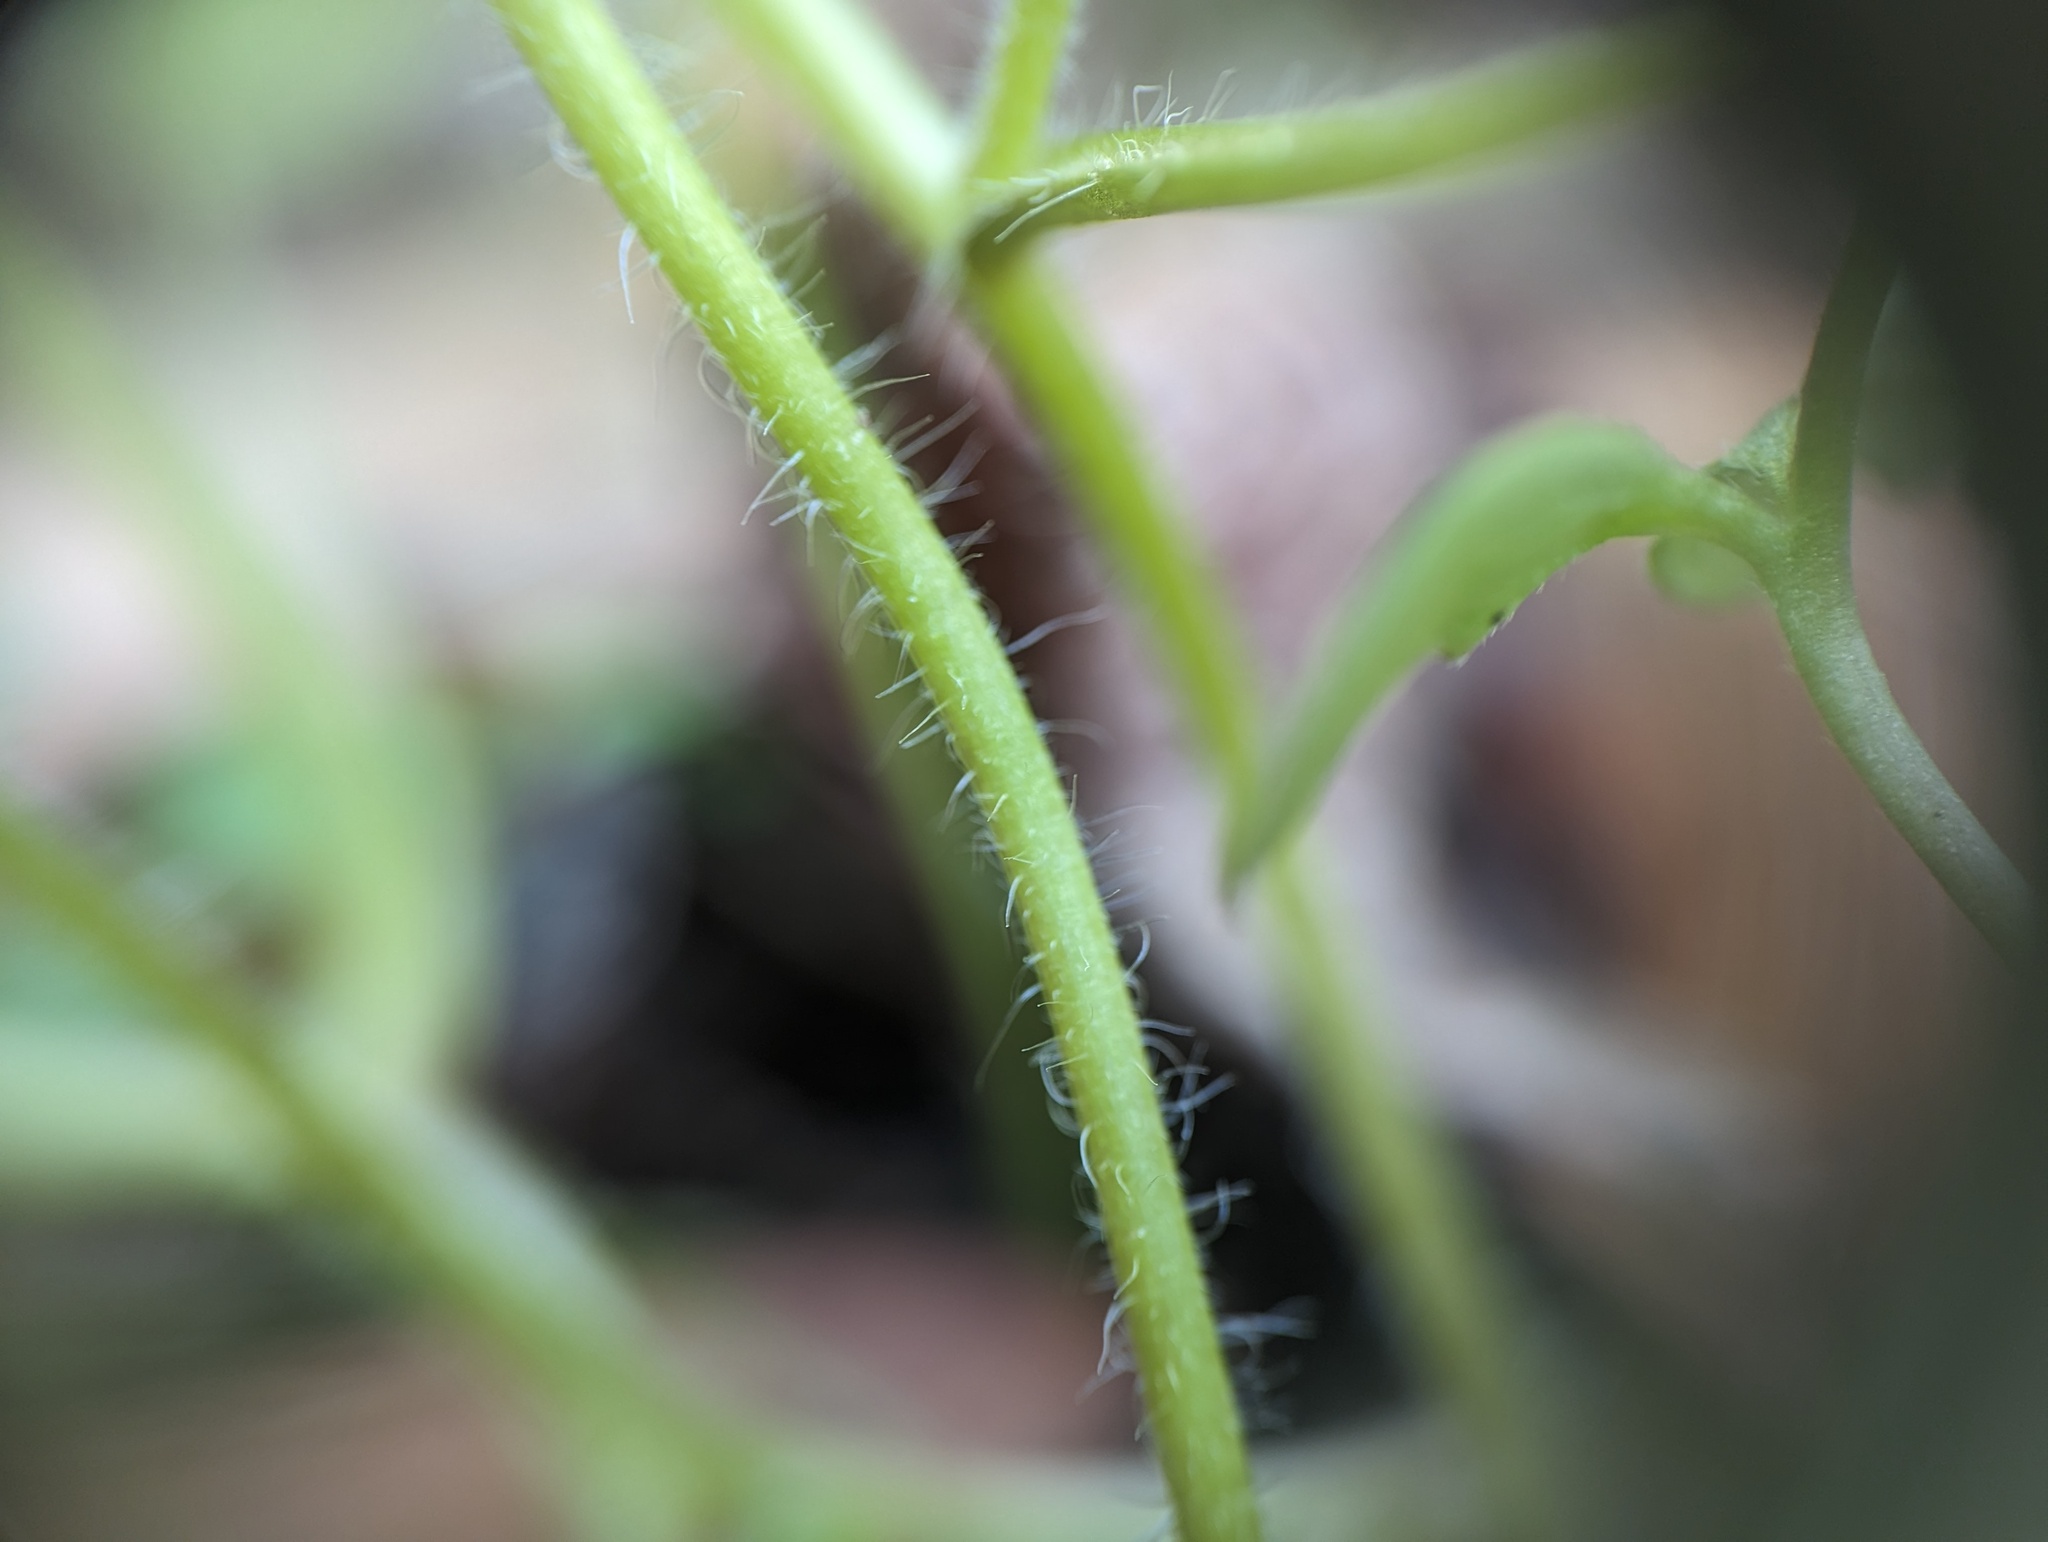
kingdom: Plantae
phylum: Tracheophyta
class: Magnoliopsida
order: Boraginales
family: Hydrophyllaceae
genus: Phacelia
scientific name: Phacelia ranunculacea
